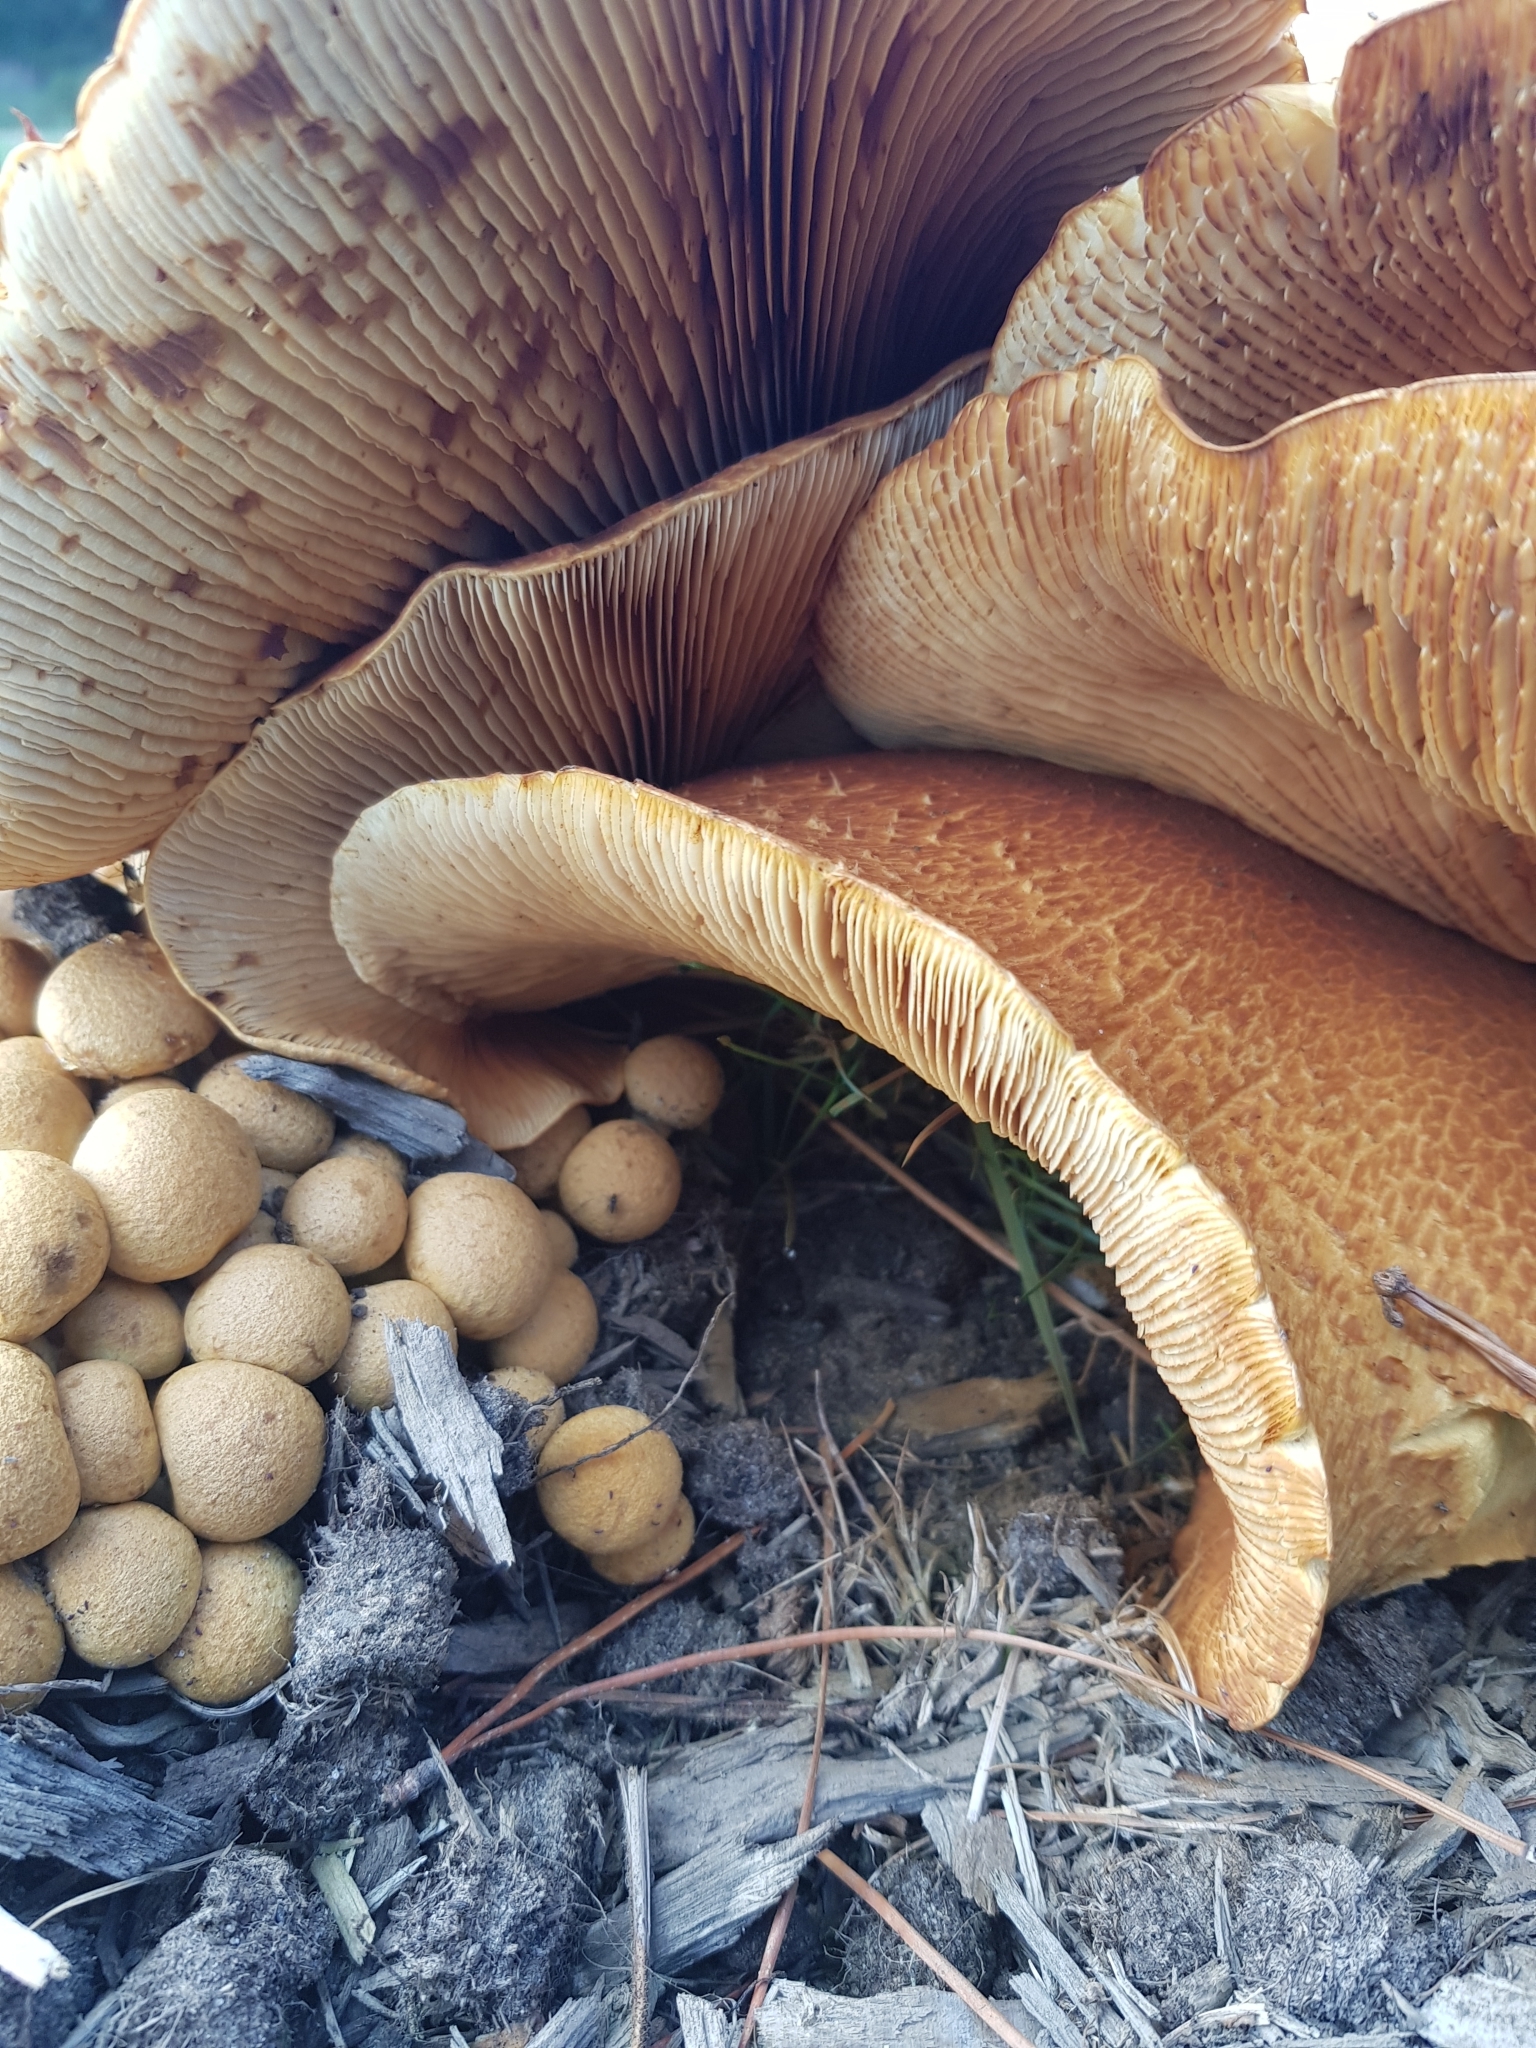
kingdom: Fungi
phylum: Basidiomycota
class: Agaricomycetes
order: Agaricales
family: Hymenogastraceae
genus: Gymnopilus
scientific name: Gymnopilus junonius
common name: Spectacular rustgill
